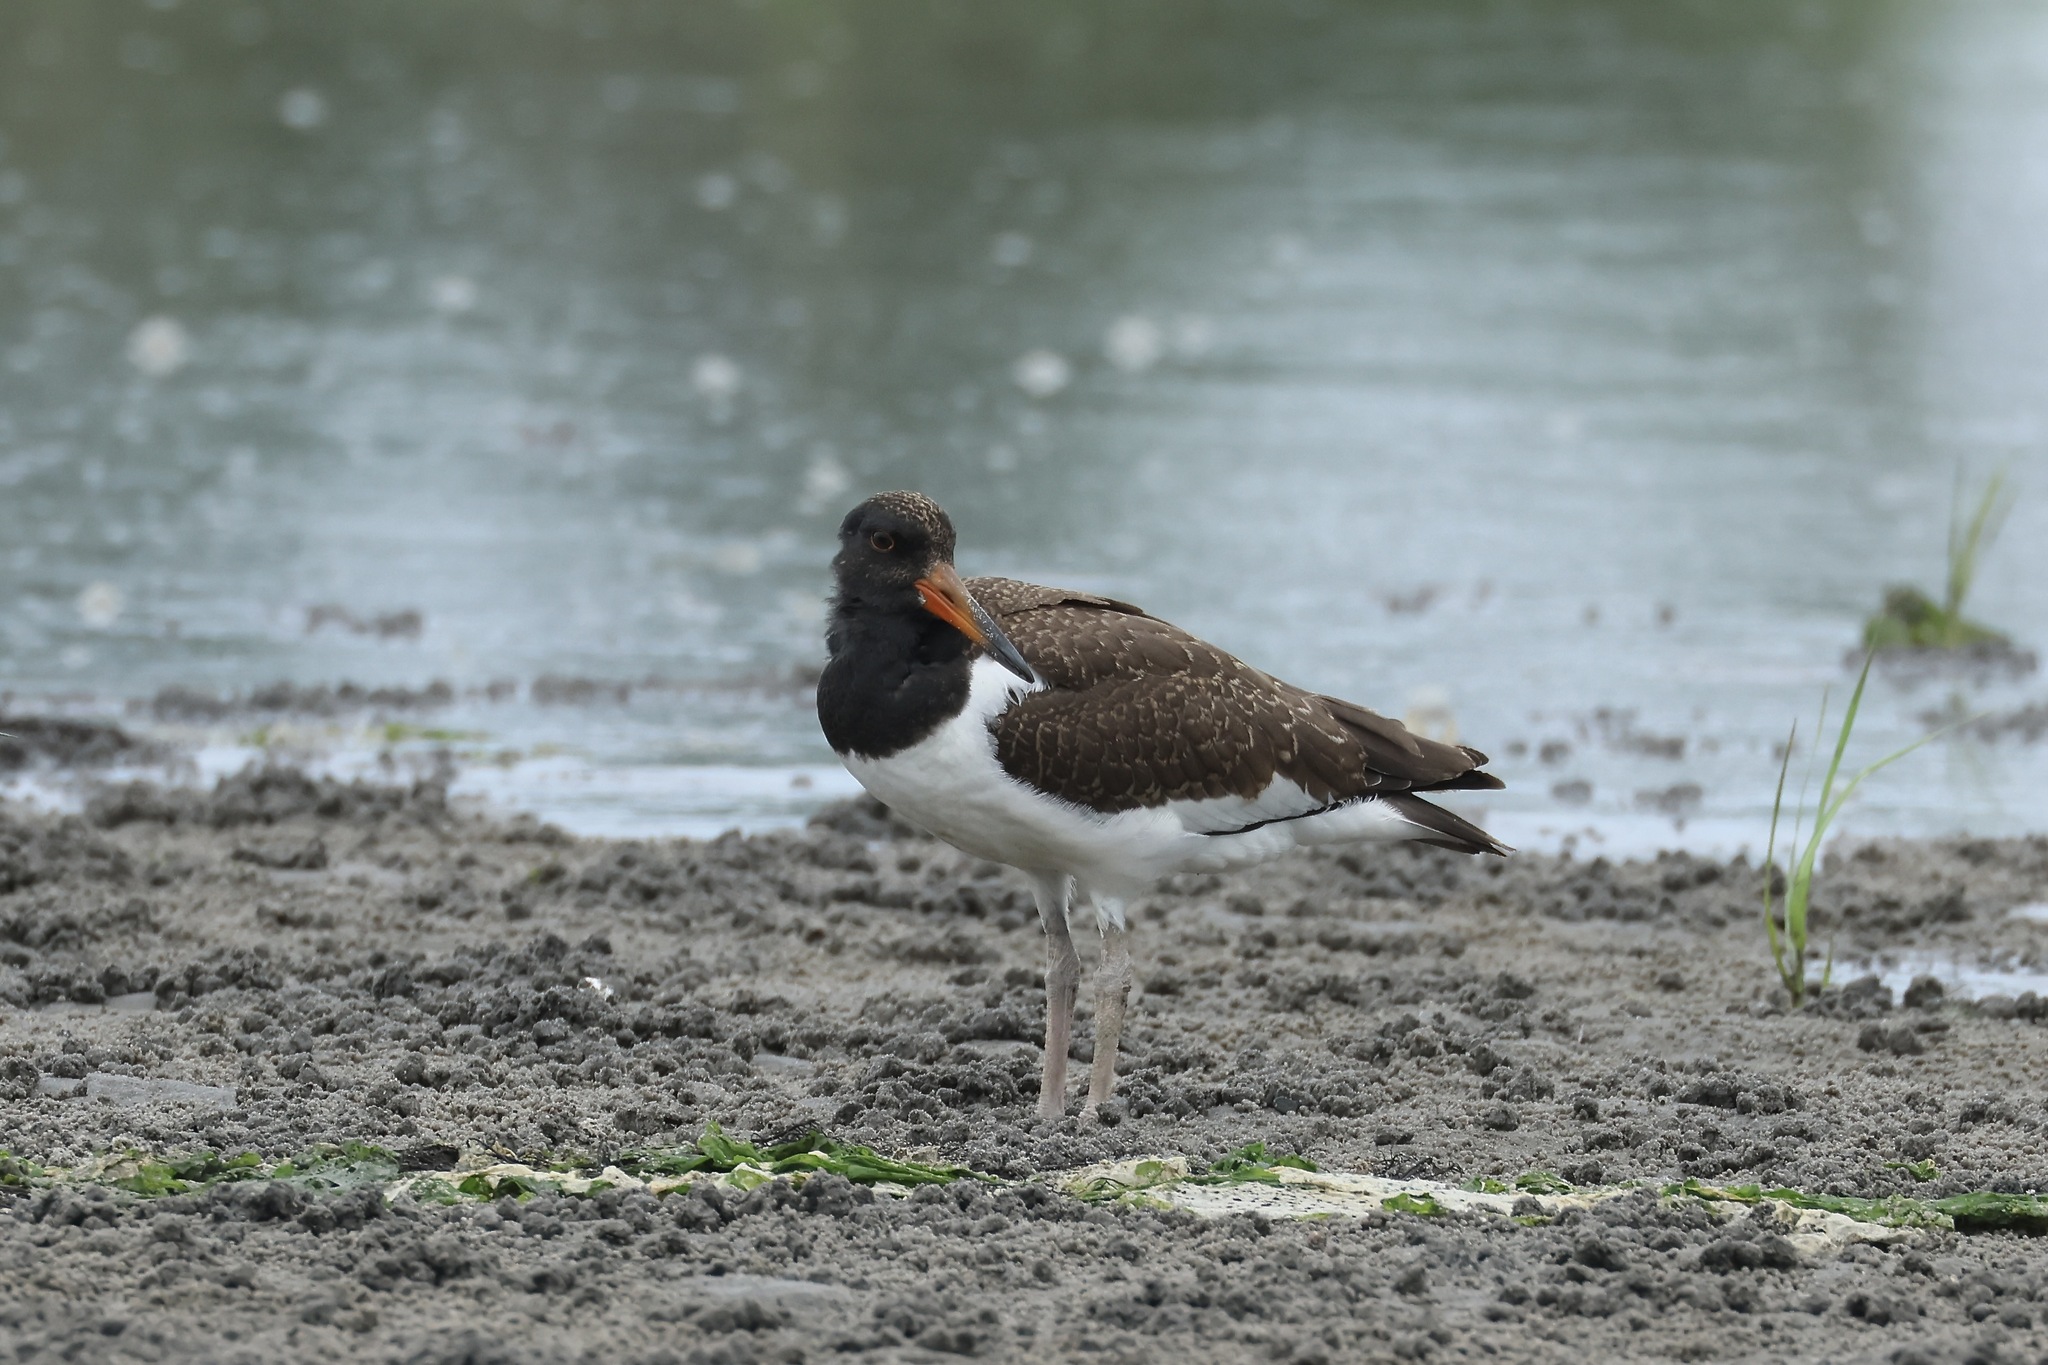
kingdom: Animalia
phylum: Chordata
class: Aves
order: Charadriiformes
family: Haematopodidae
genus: Haematopus
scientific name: Haematopus palliatus
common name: American oystercatcher
